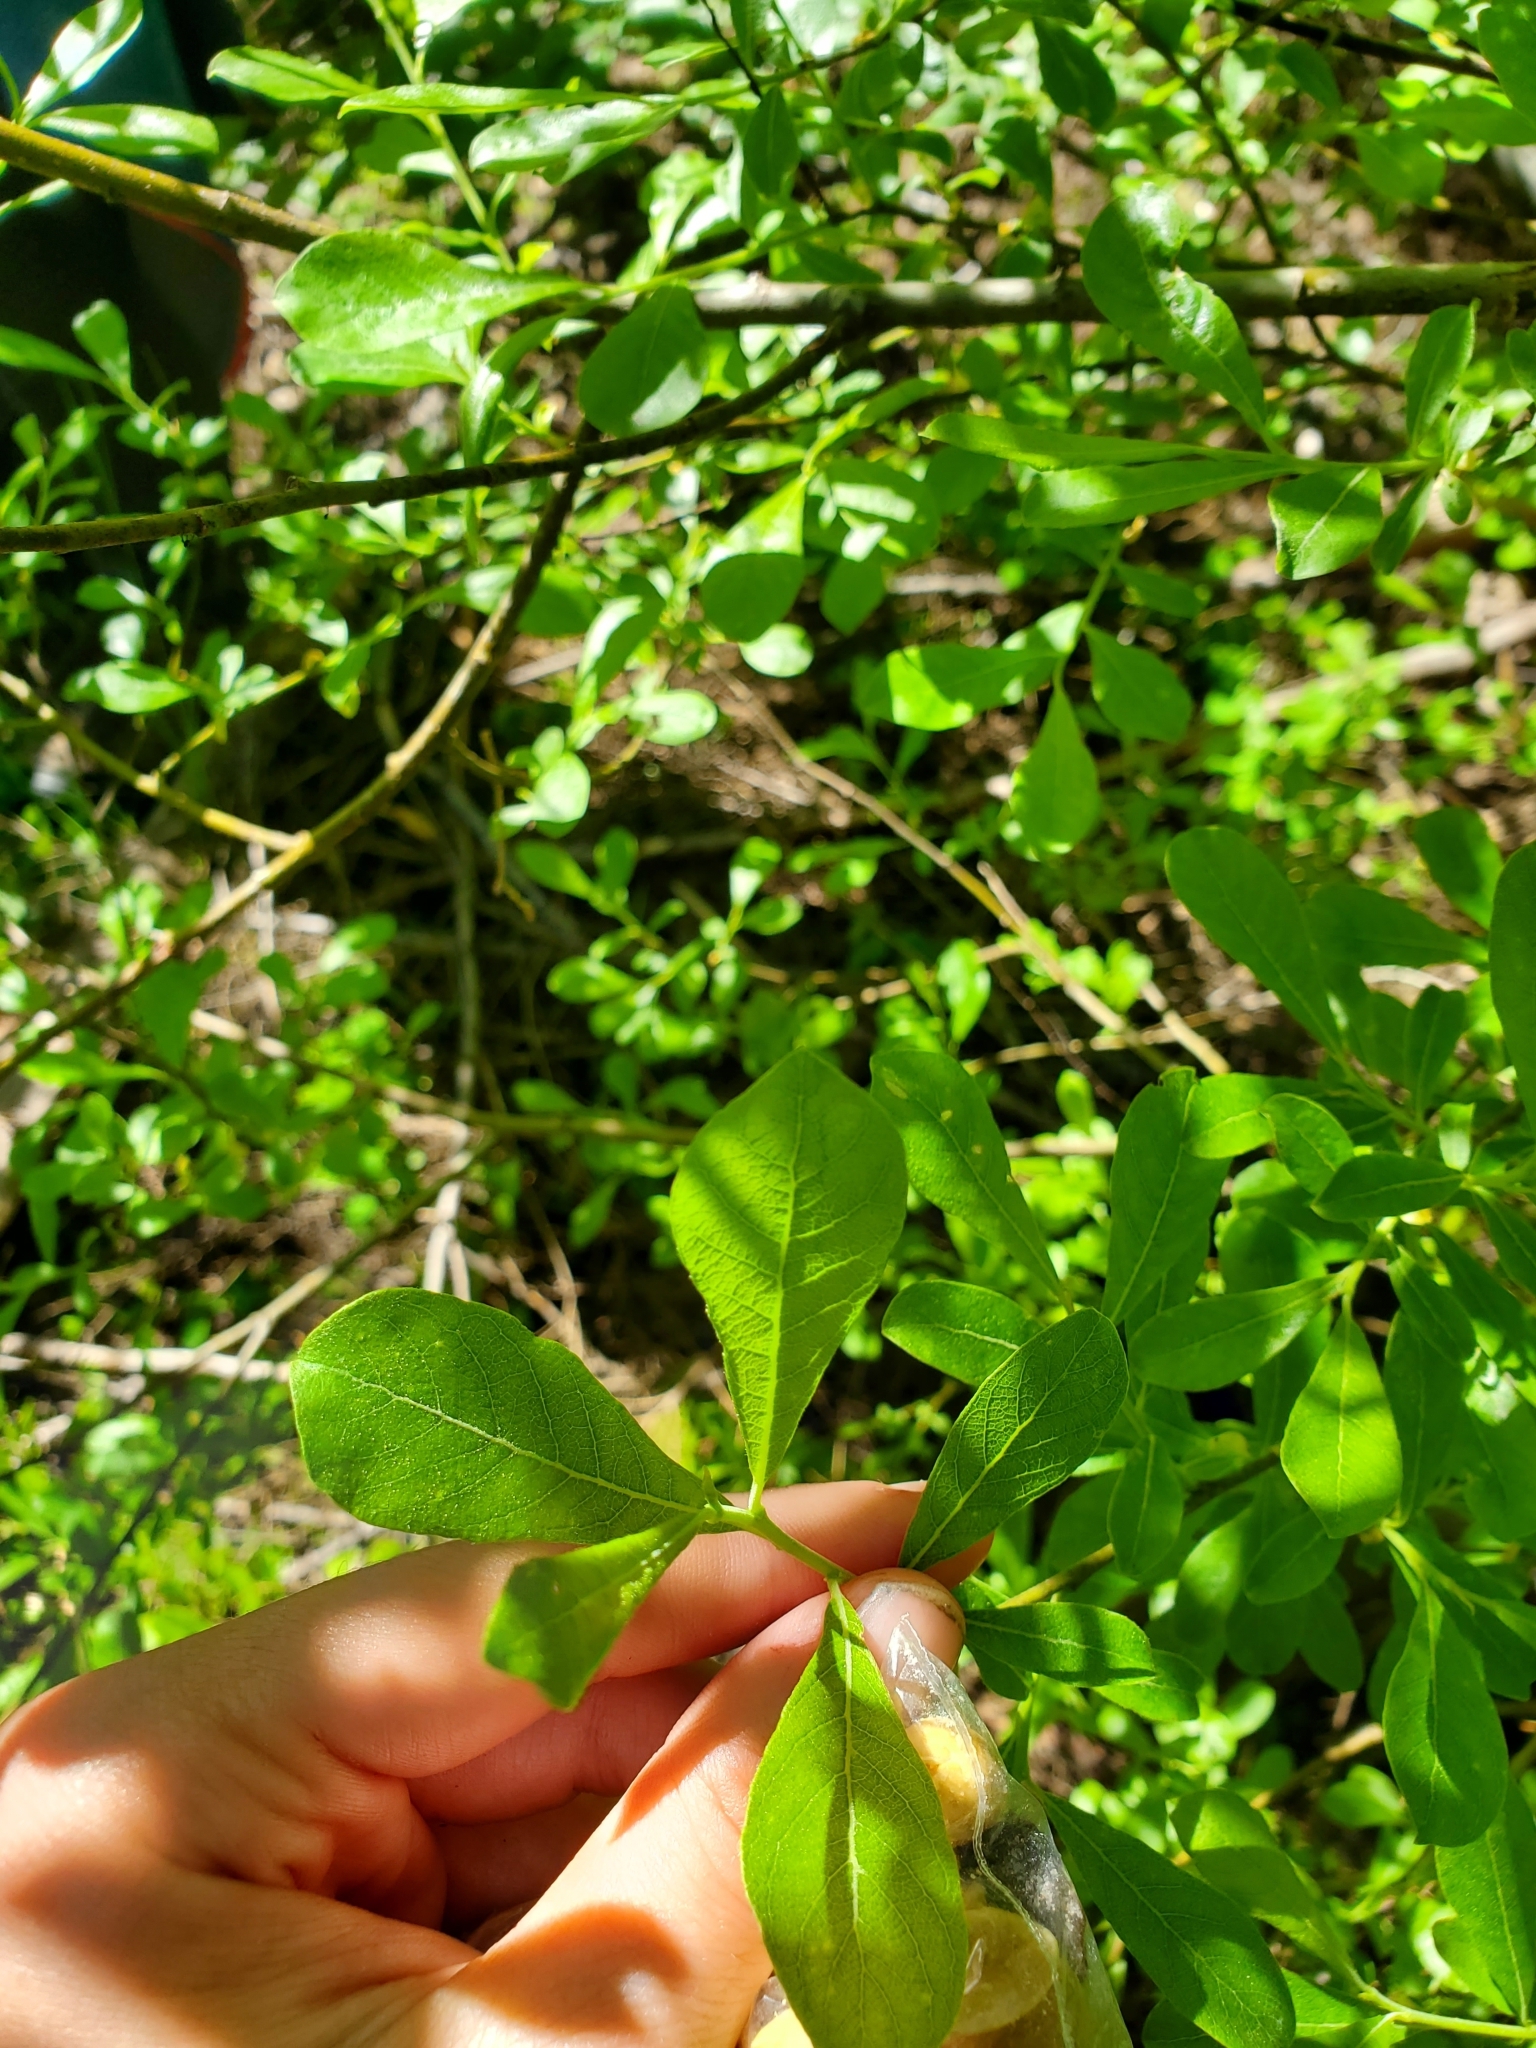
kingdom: Plantae
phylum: Tracheophyta
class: Magnoliopsida
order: Malpighiales
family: Salicaceae
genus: Salix
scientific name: Salix scouleriana
